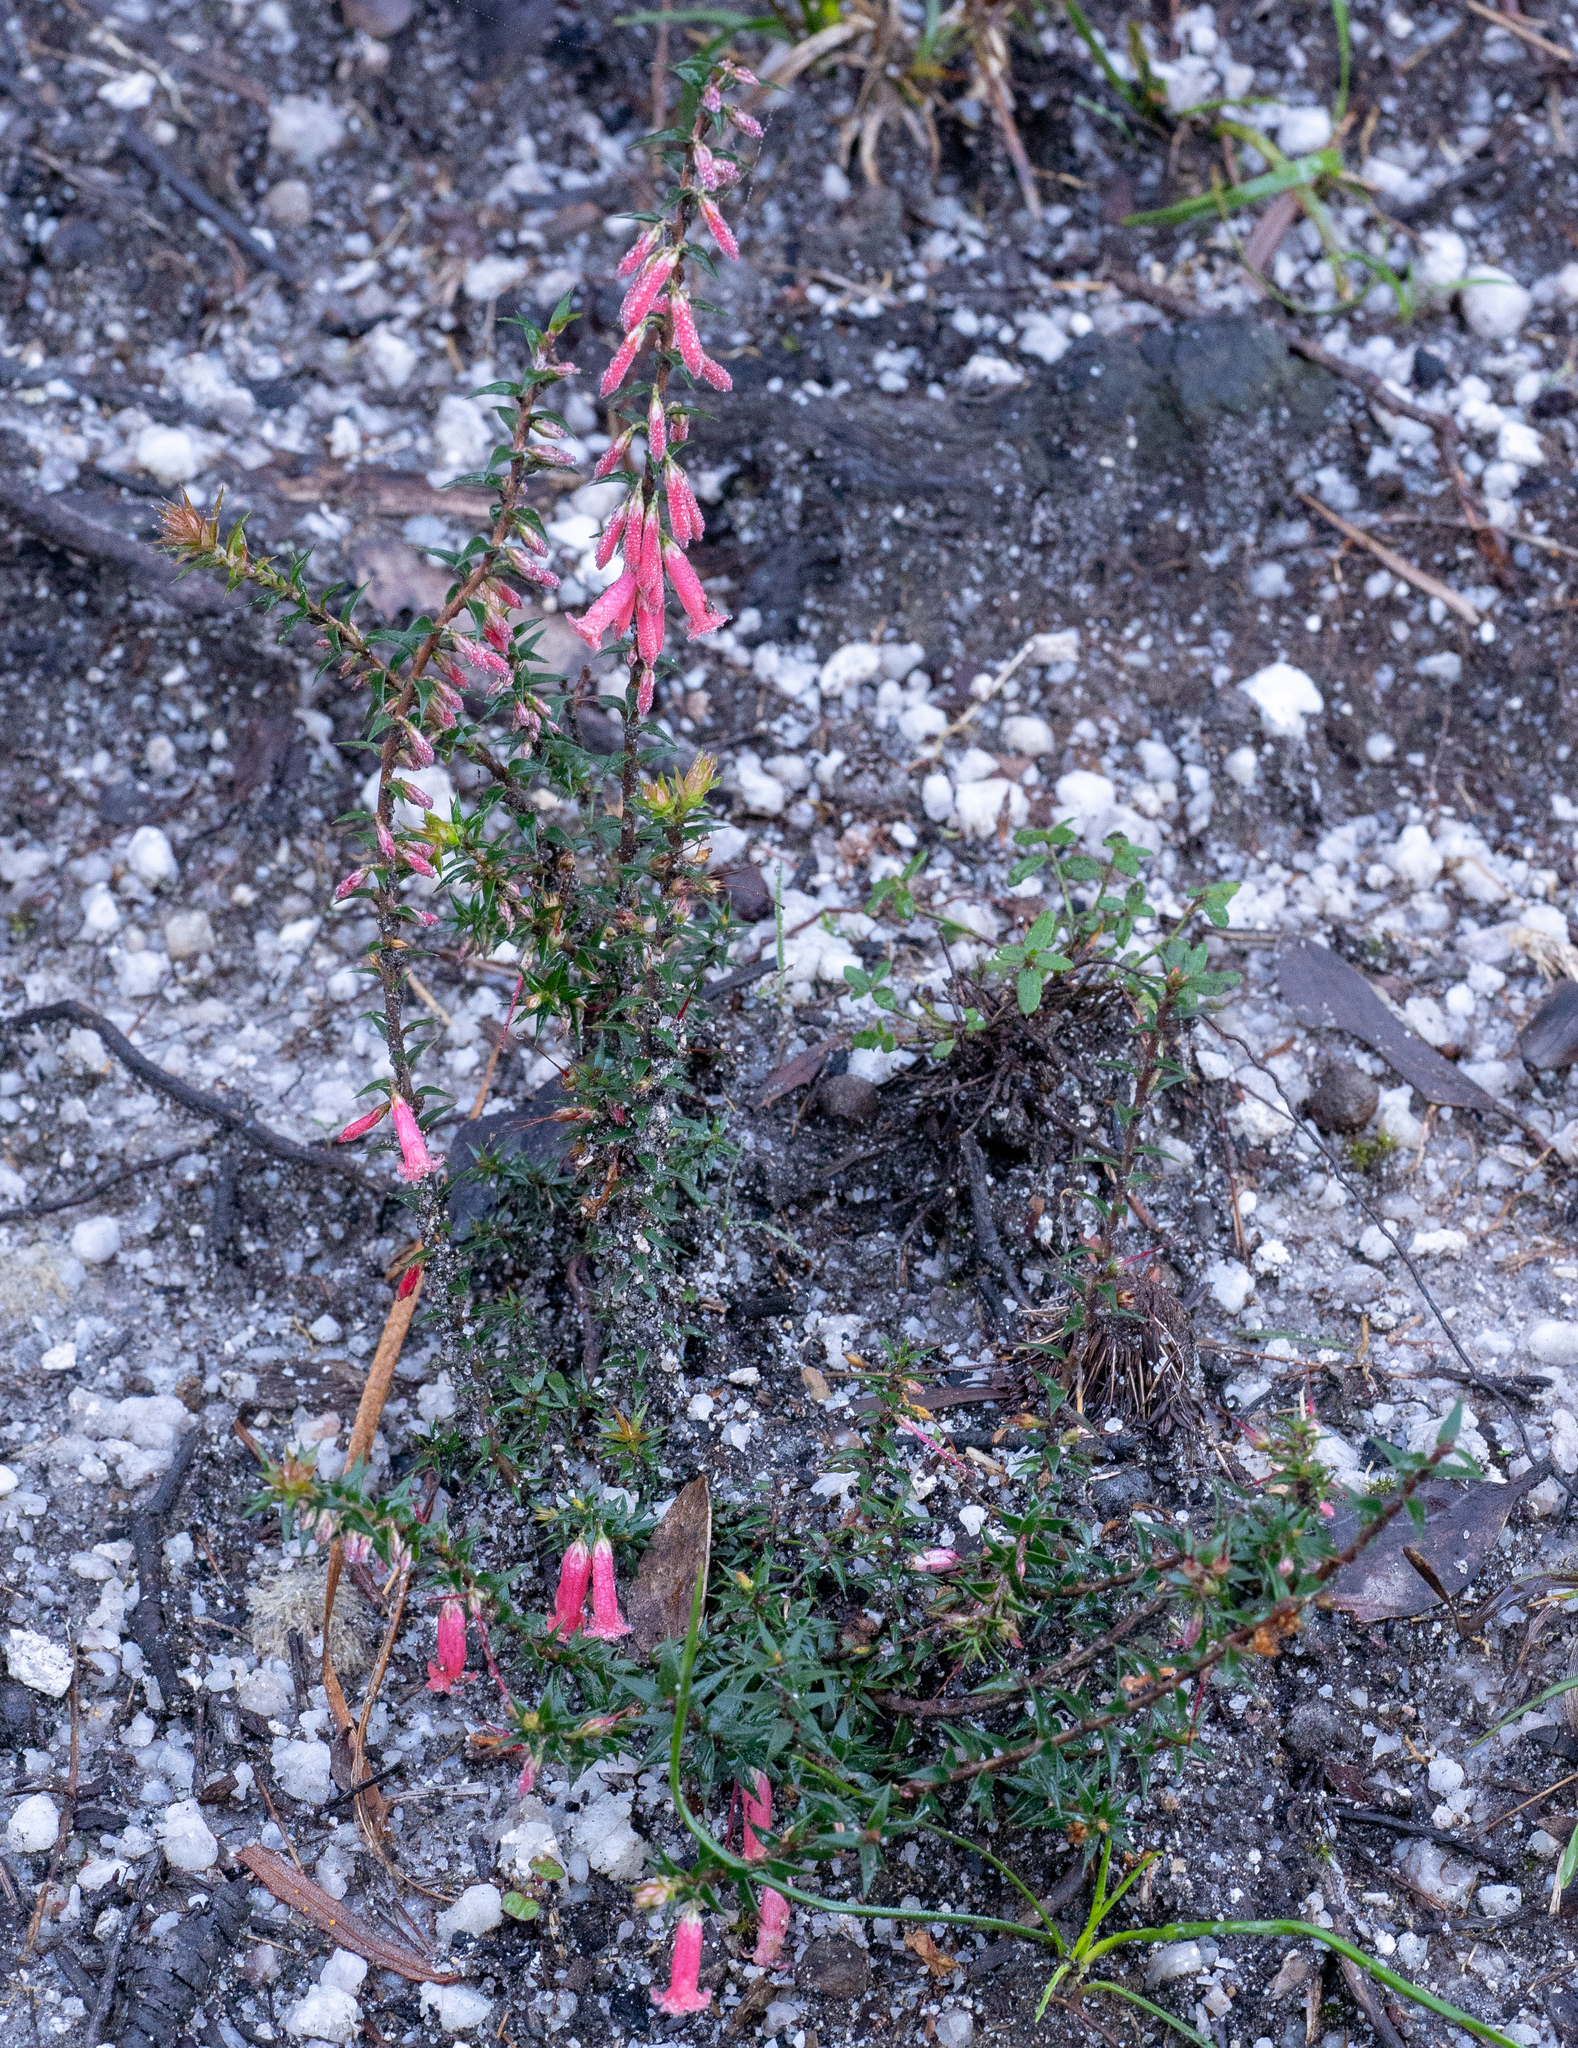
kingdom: Plantae
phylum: Tracheophyta
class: Magnoliopsida
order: Ericales
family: Ericaceae
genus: Epacris
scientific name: Epacris impressa
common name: Common-heath
